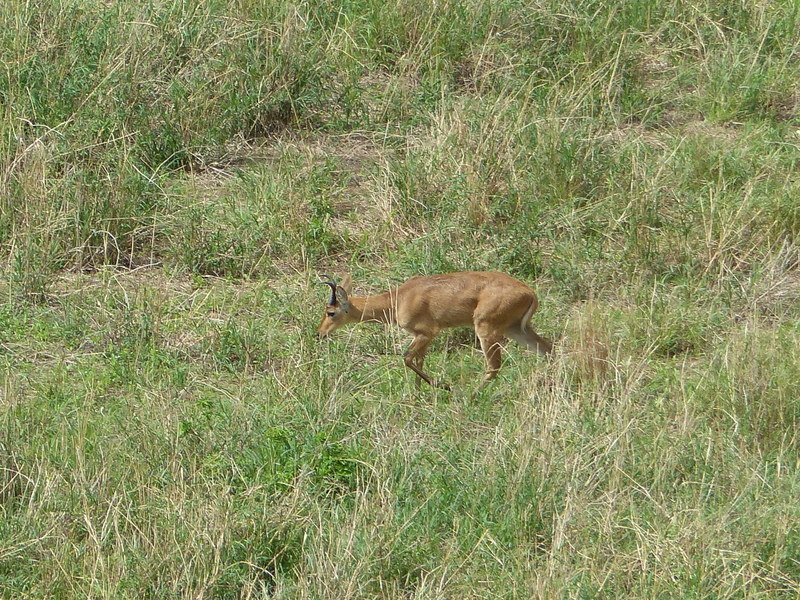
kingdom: Animalia
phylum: Chordata
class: Mammalia
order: Artiodactyla
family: Bovidae
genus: Redunca
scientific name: Redunca redunca
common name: Common reedbuck
